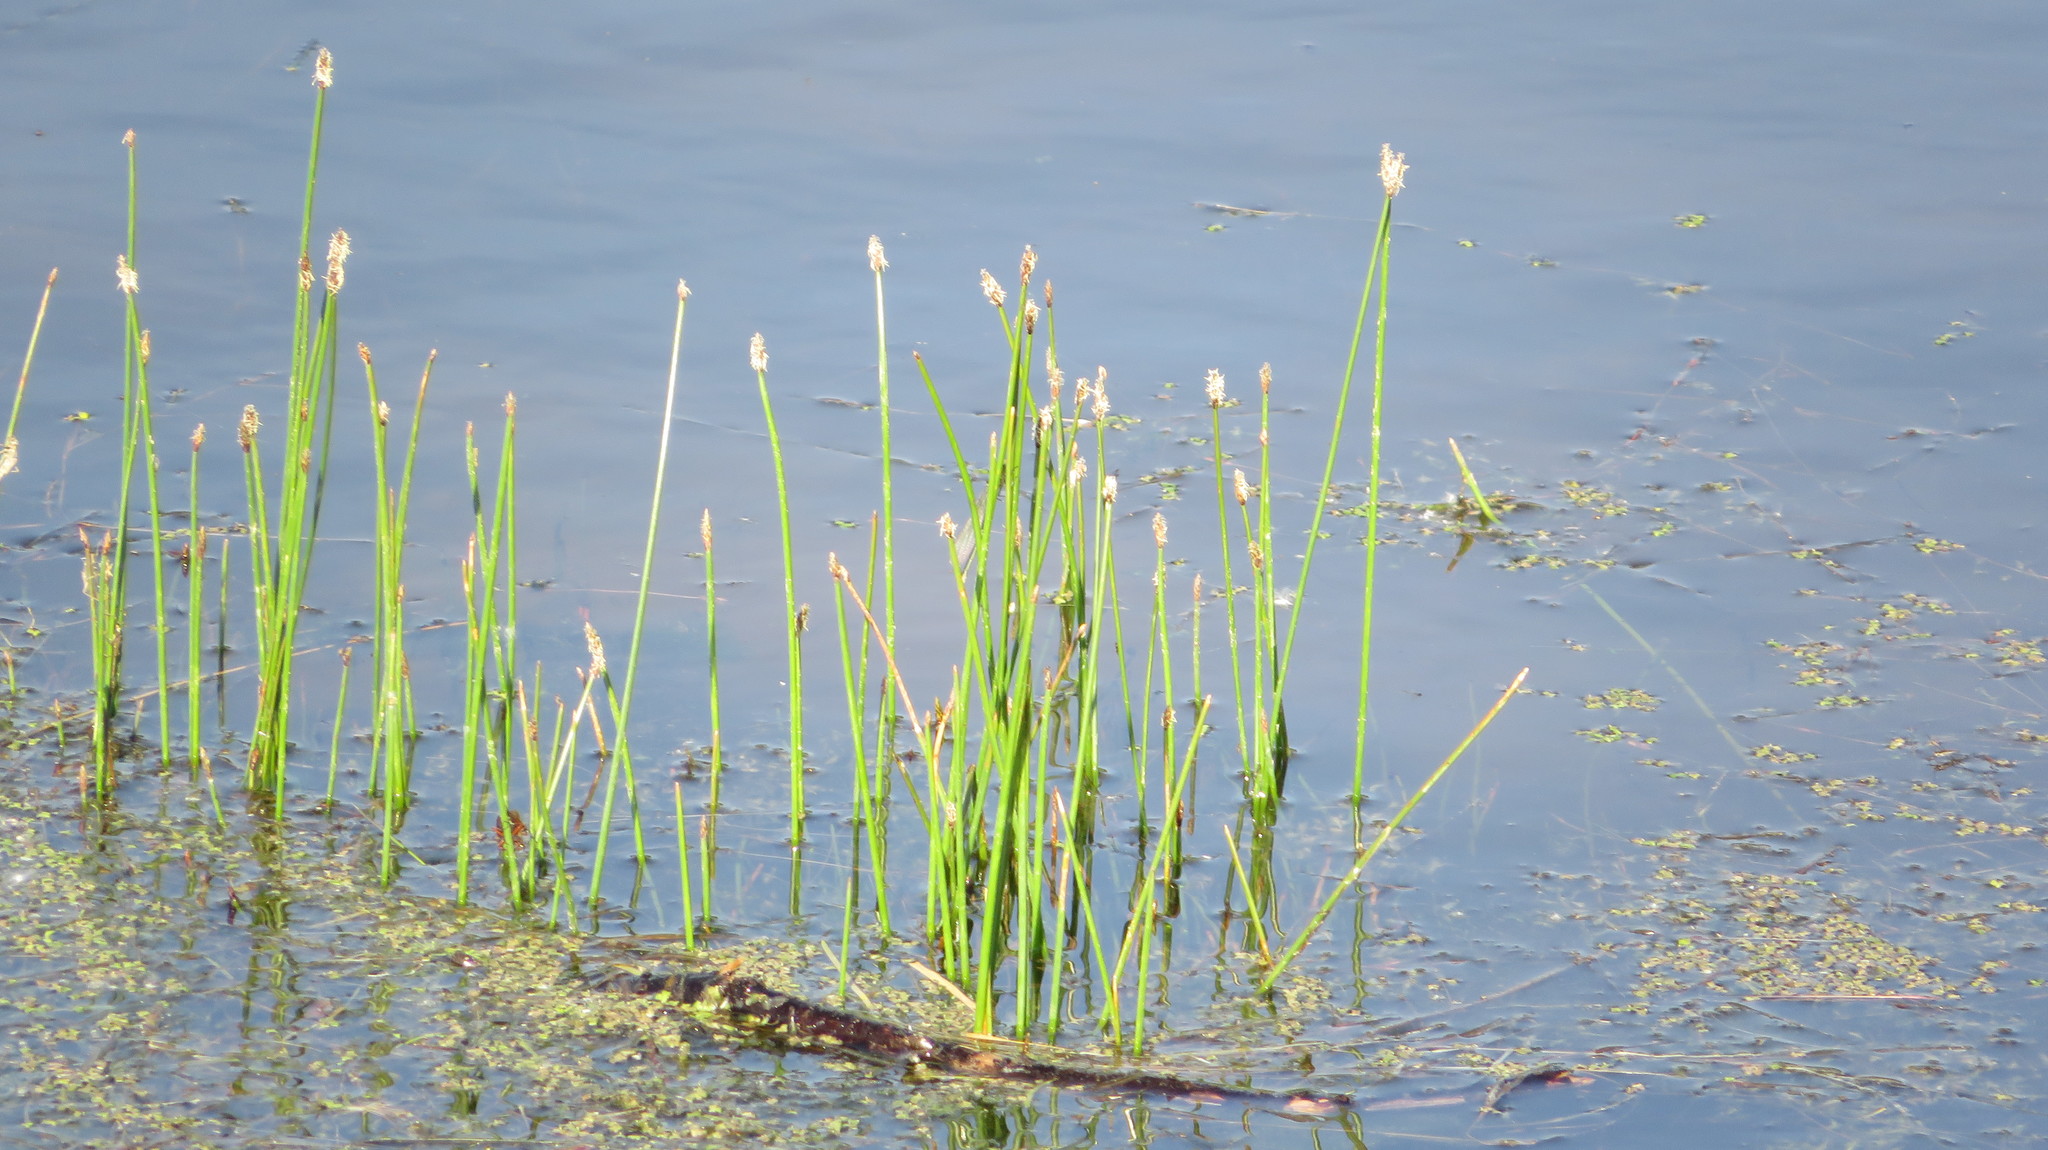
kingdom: Plantae
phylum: Tracheophyta
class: Liliopsida
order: Poales
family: Cyperaceae
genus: Eleocharis
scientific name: Eleocharis palustris
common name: Common spike-rush
